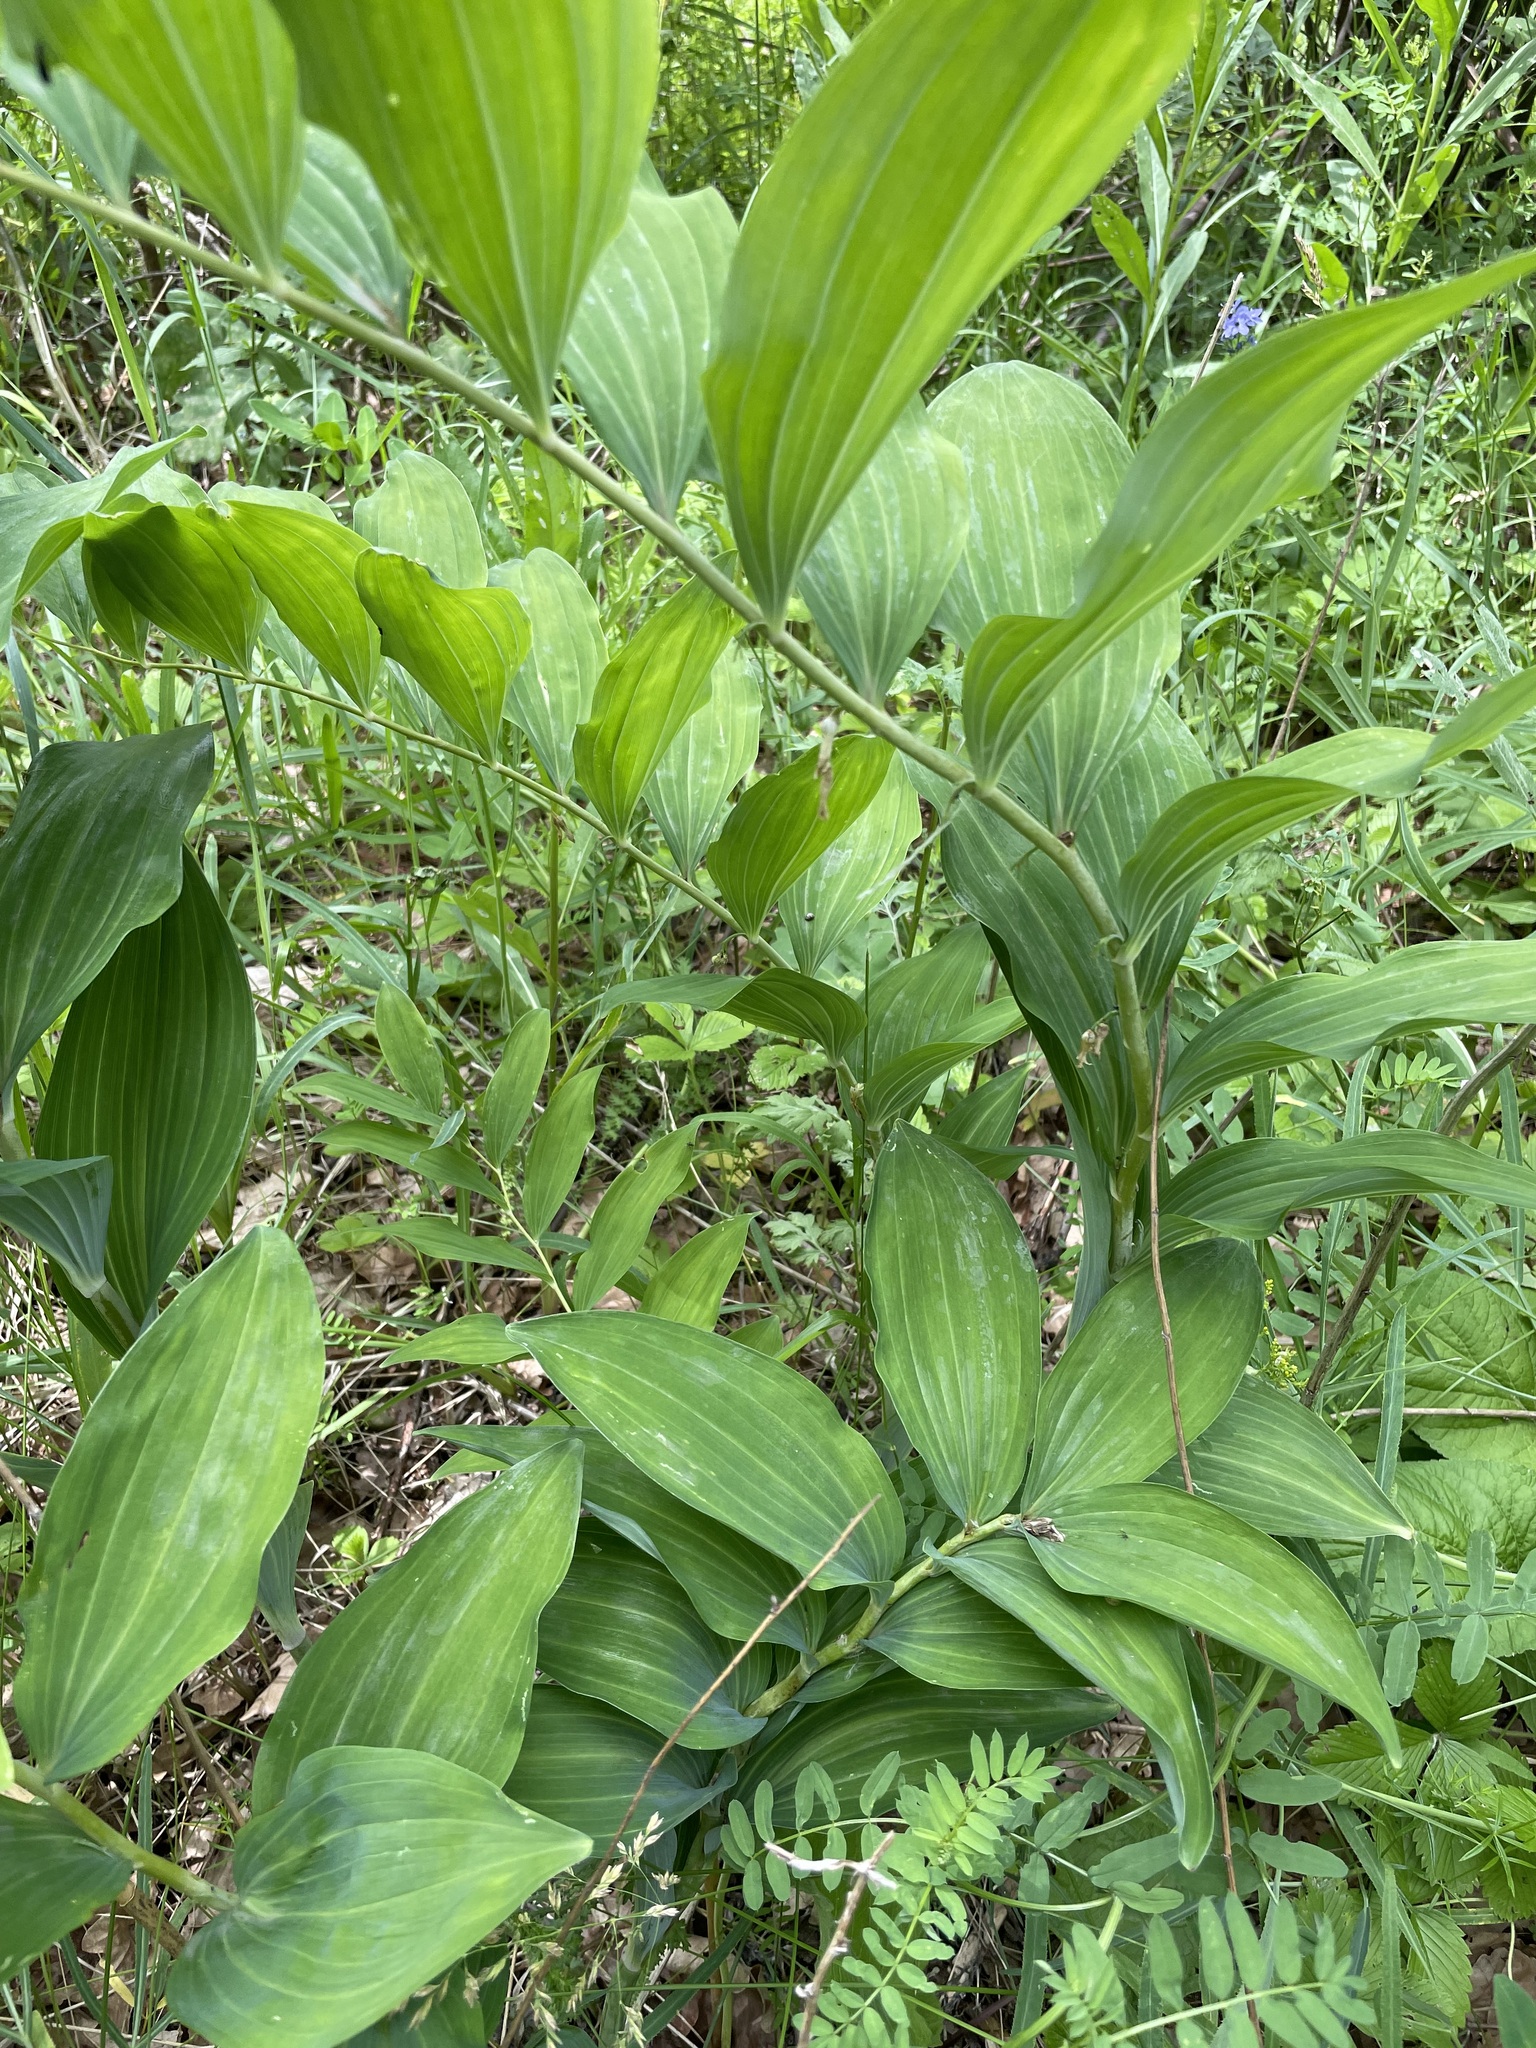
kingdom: Plantae
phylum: Tracheophyta
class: Liliopsida
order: Asparagales
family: Asparagaceae
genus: Polygonatum
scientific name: Polygonatum multiflorum
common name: Solomon's-seal
